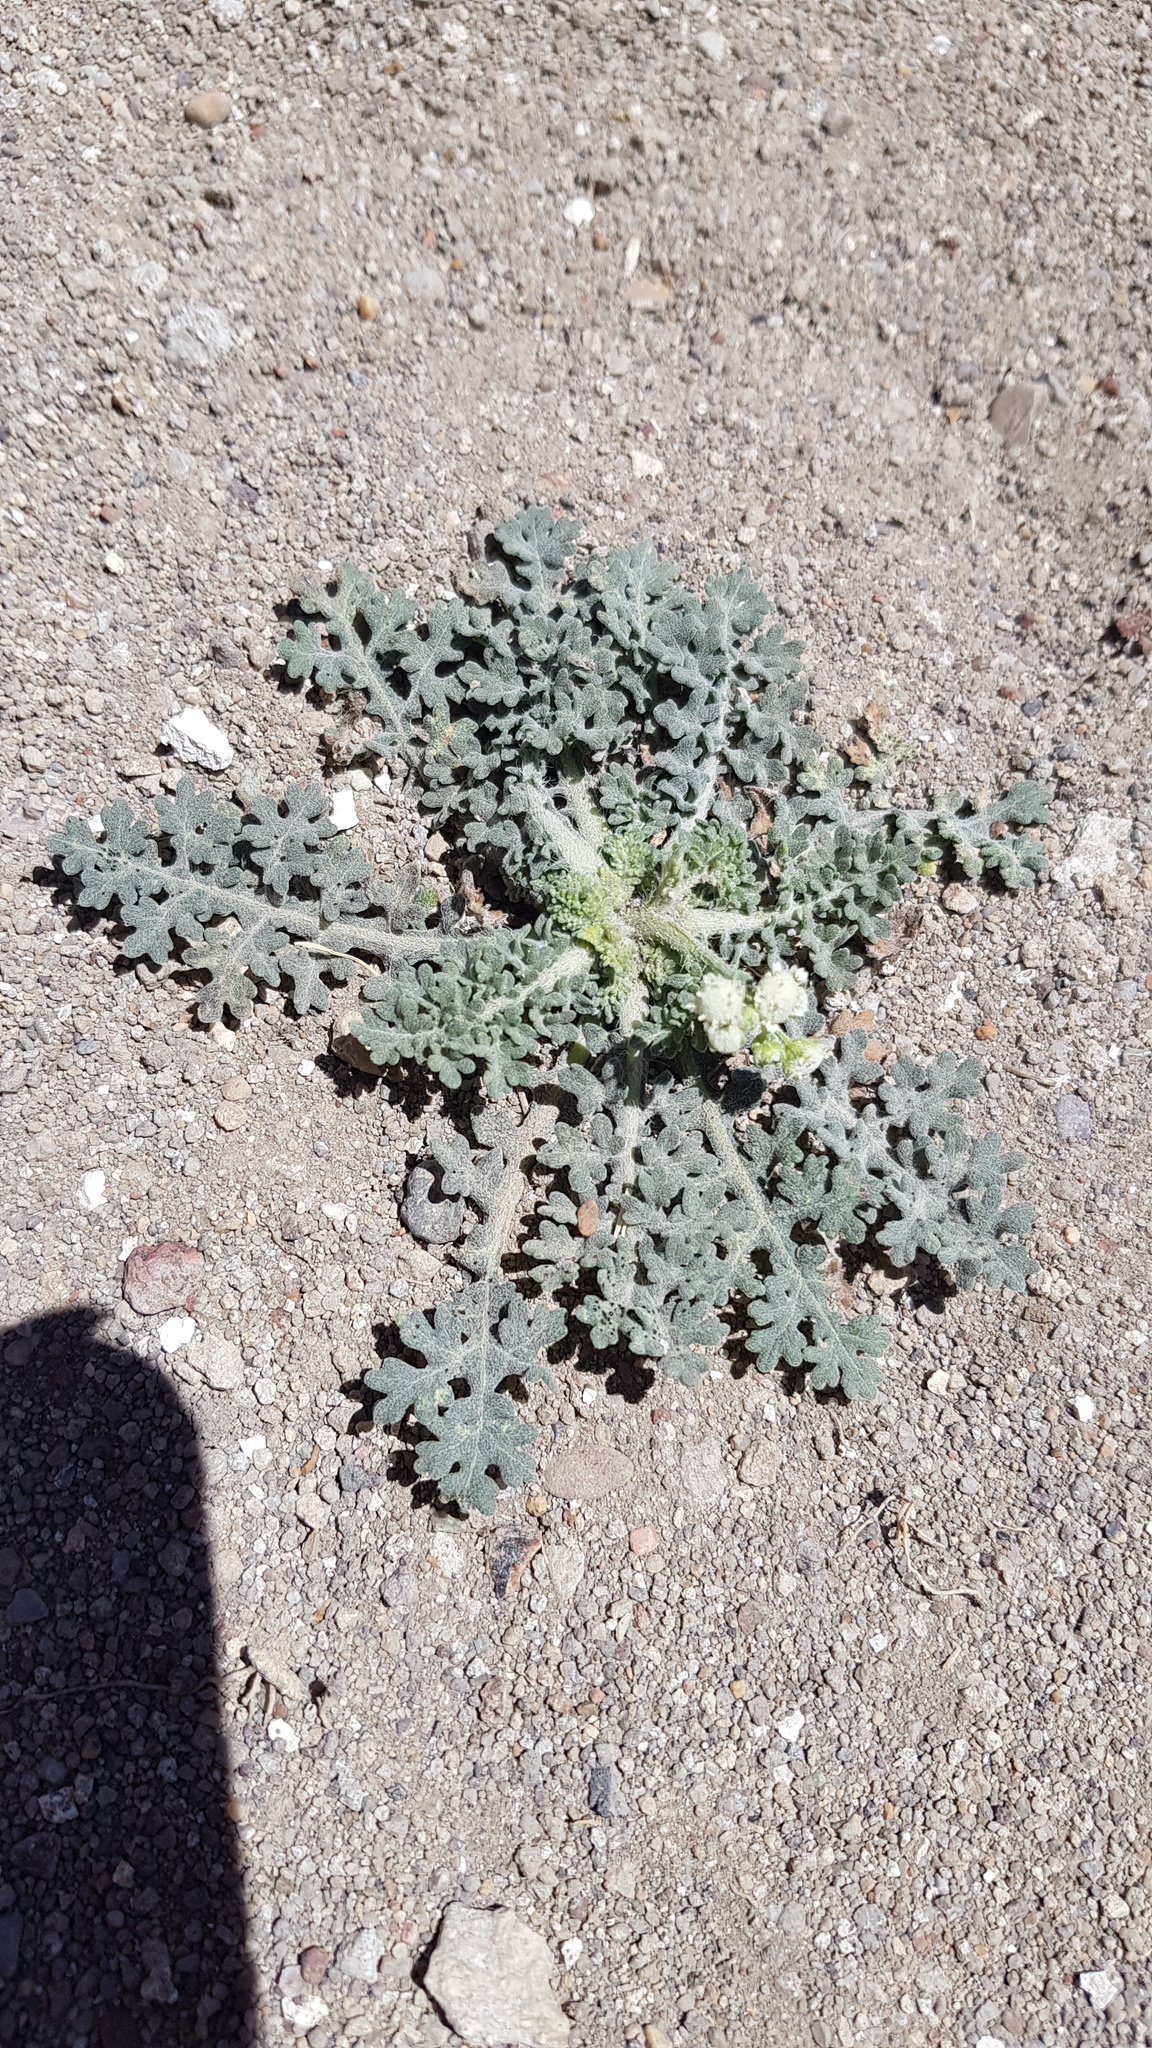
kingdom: Plantae
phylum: Tracheophyta
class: Magnoliopsida
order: Asterales
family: Asteraceae
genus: Parthenium
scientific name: Parthenium bipinnatifidum
